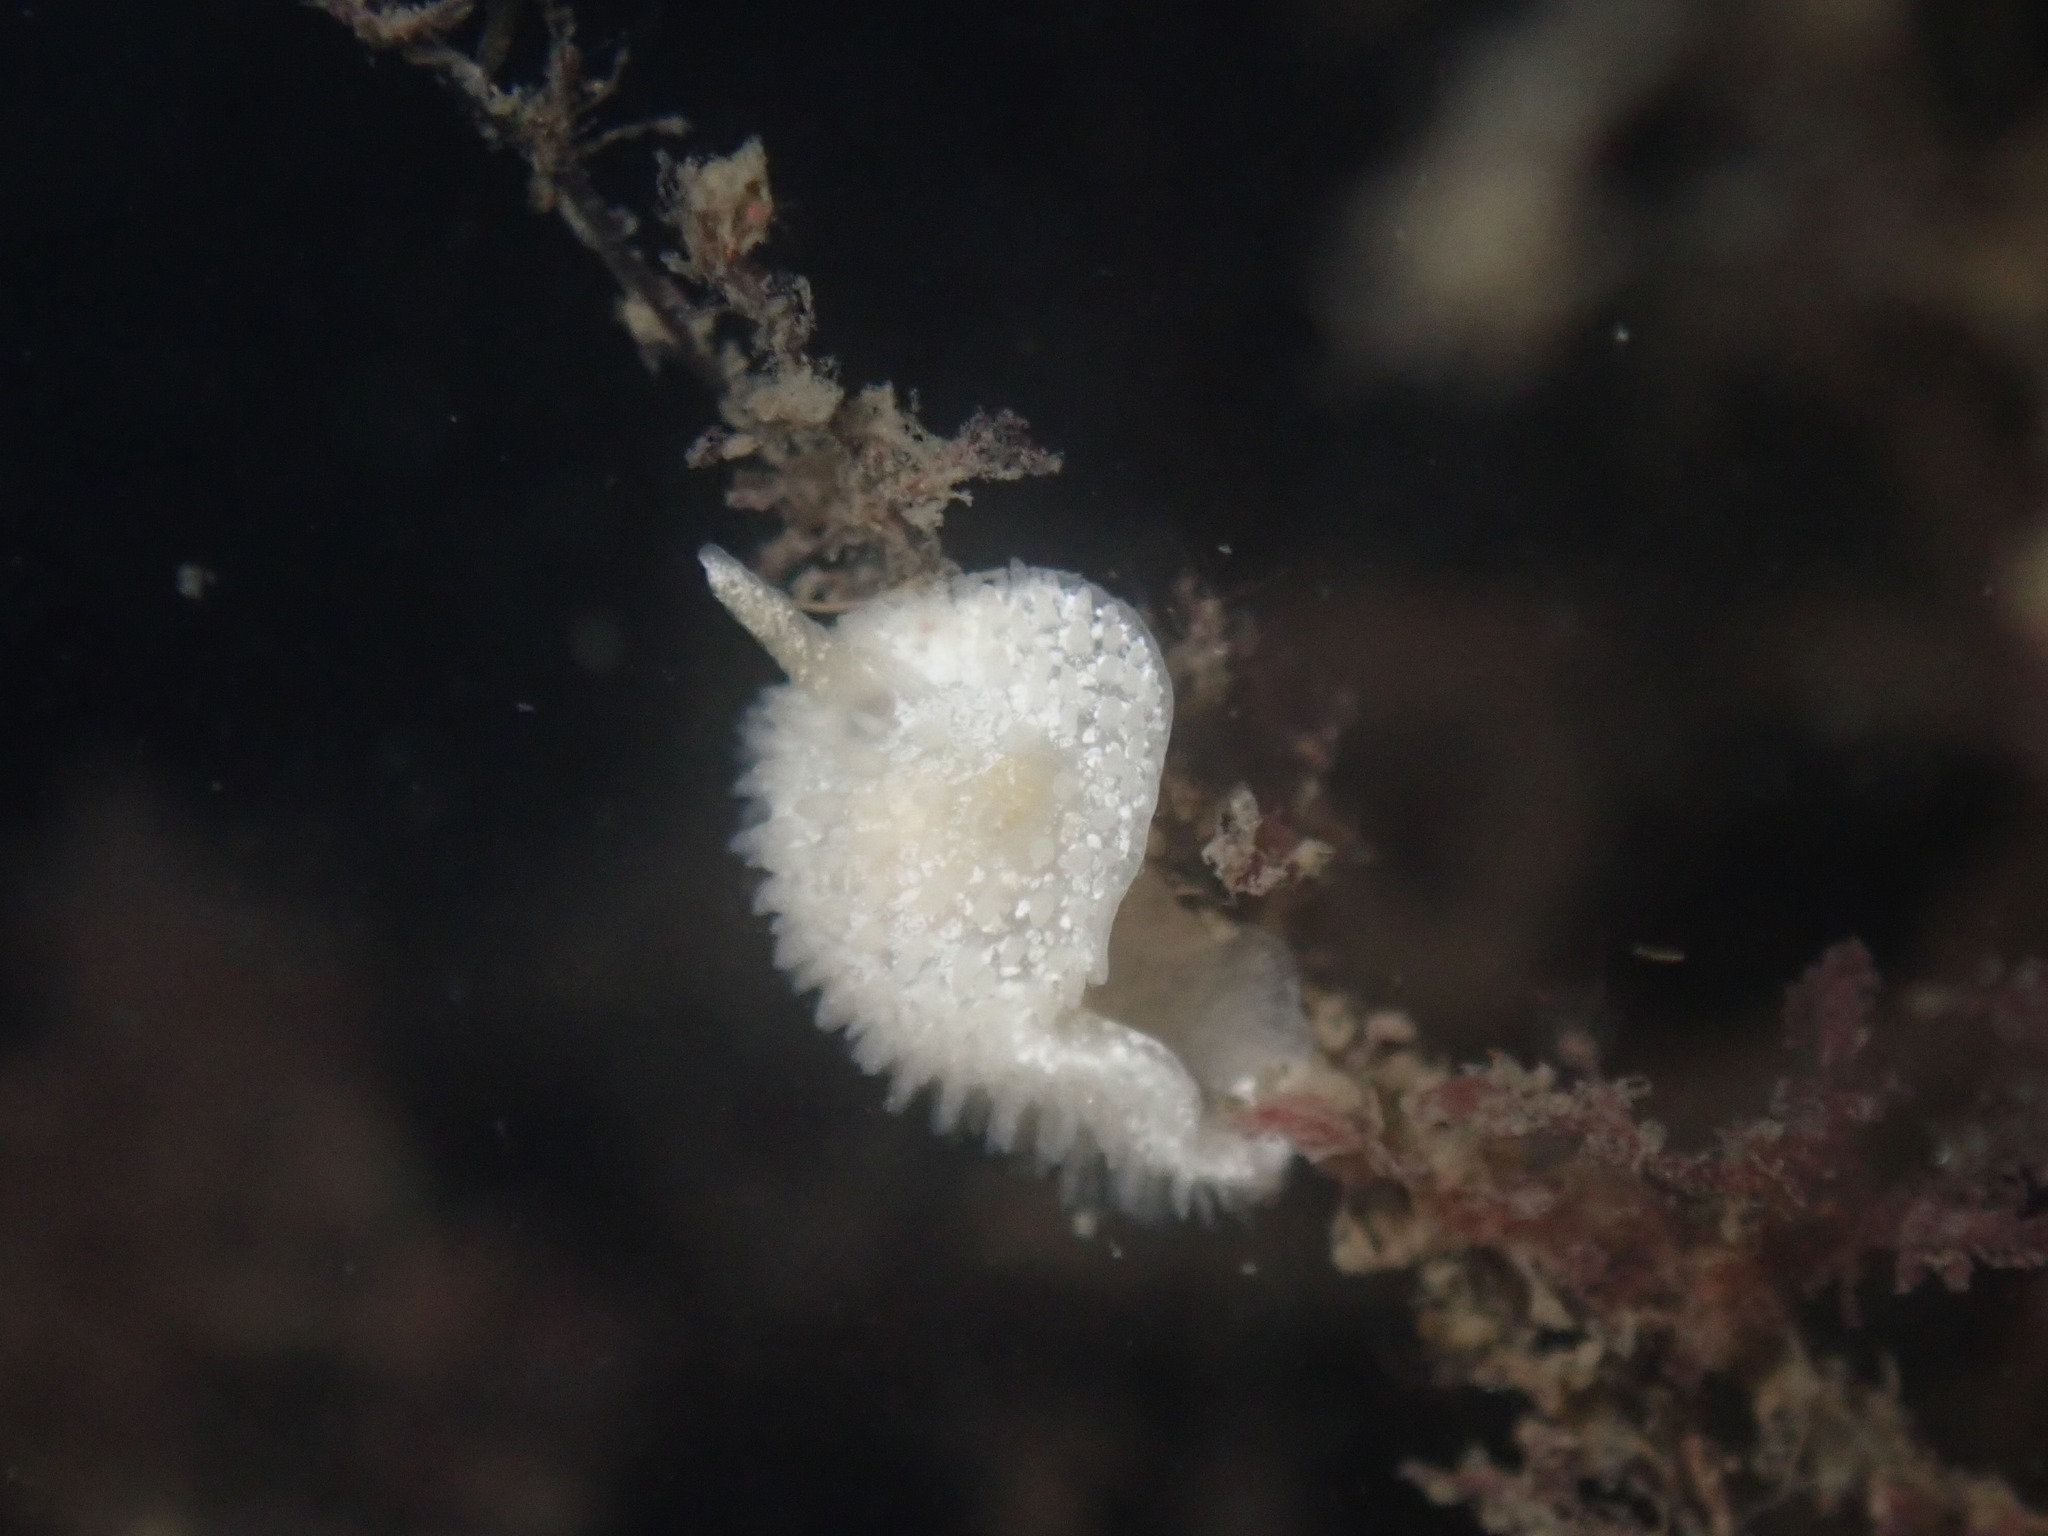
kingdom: Animalia
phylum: Mollusca
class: Gastropoda
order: Nudibranchia
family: Calycidorididae
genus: Diaphorodoris
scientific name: Diaphorodoris lirulatocauda
